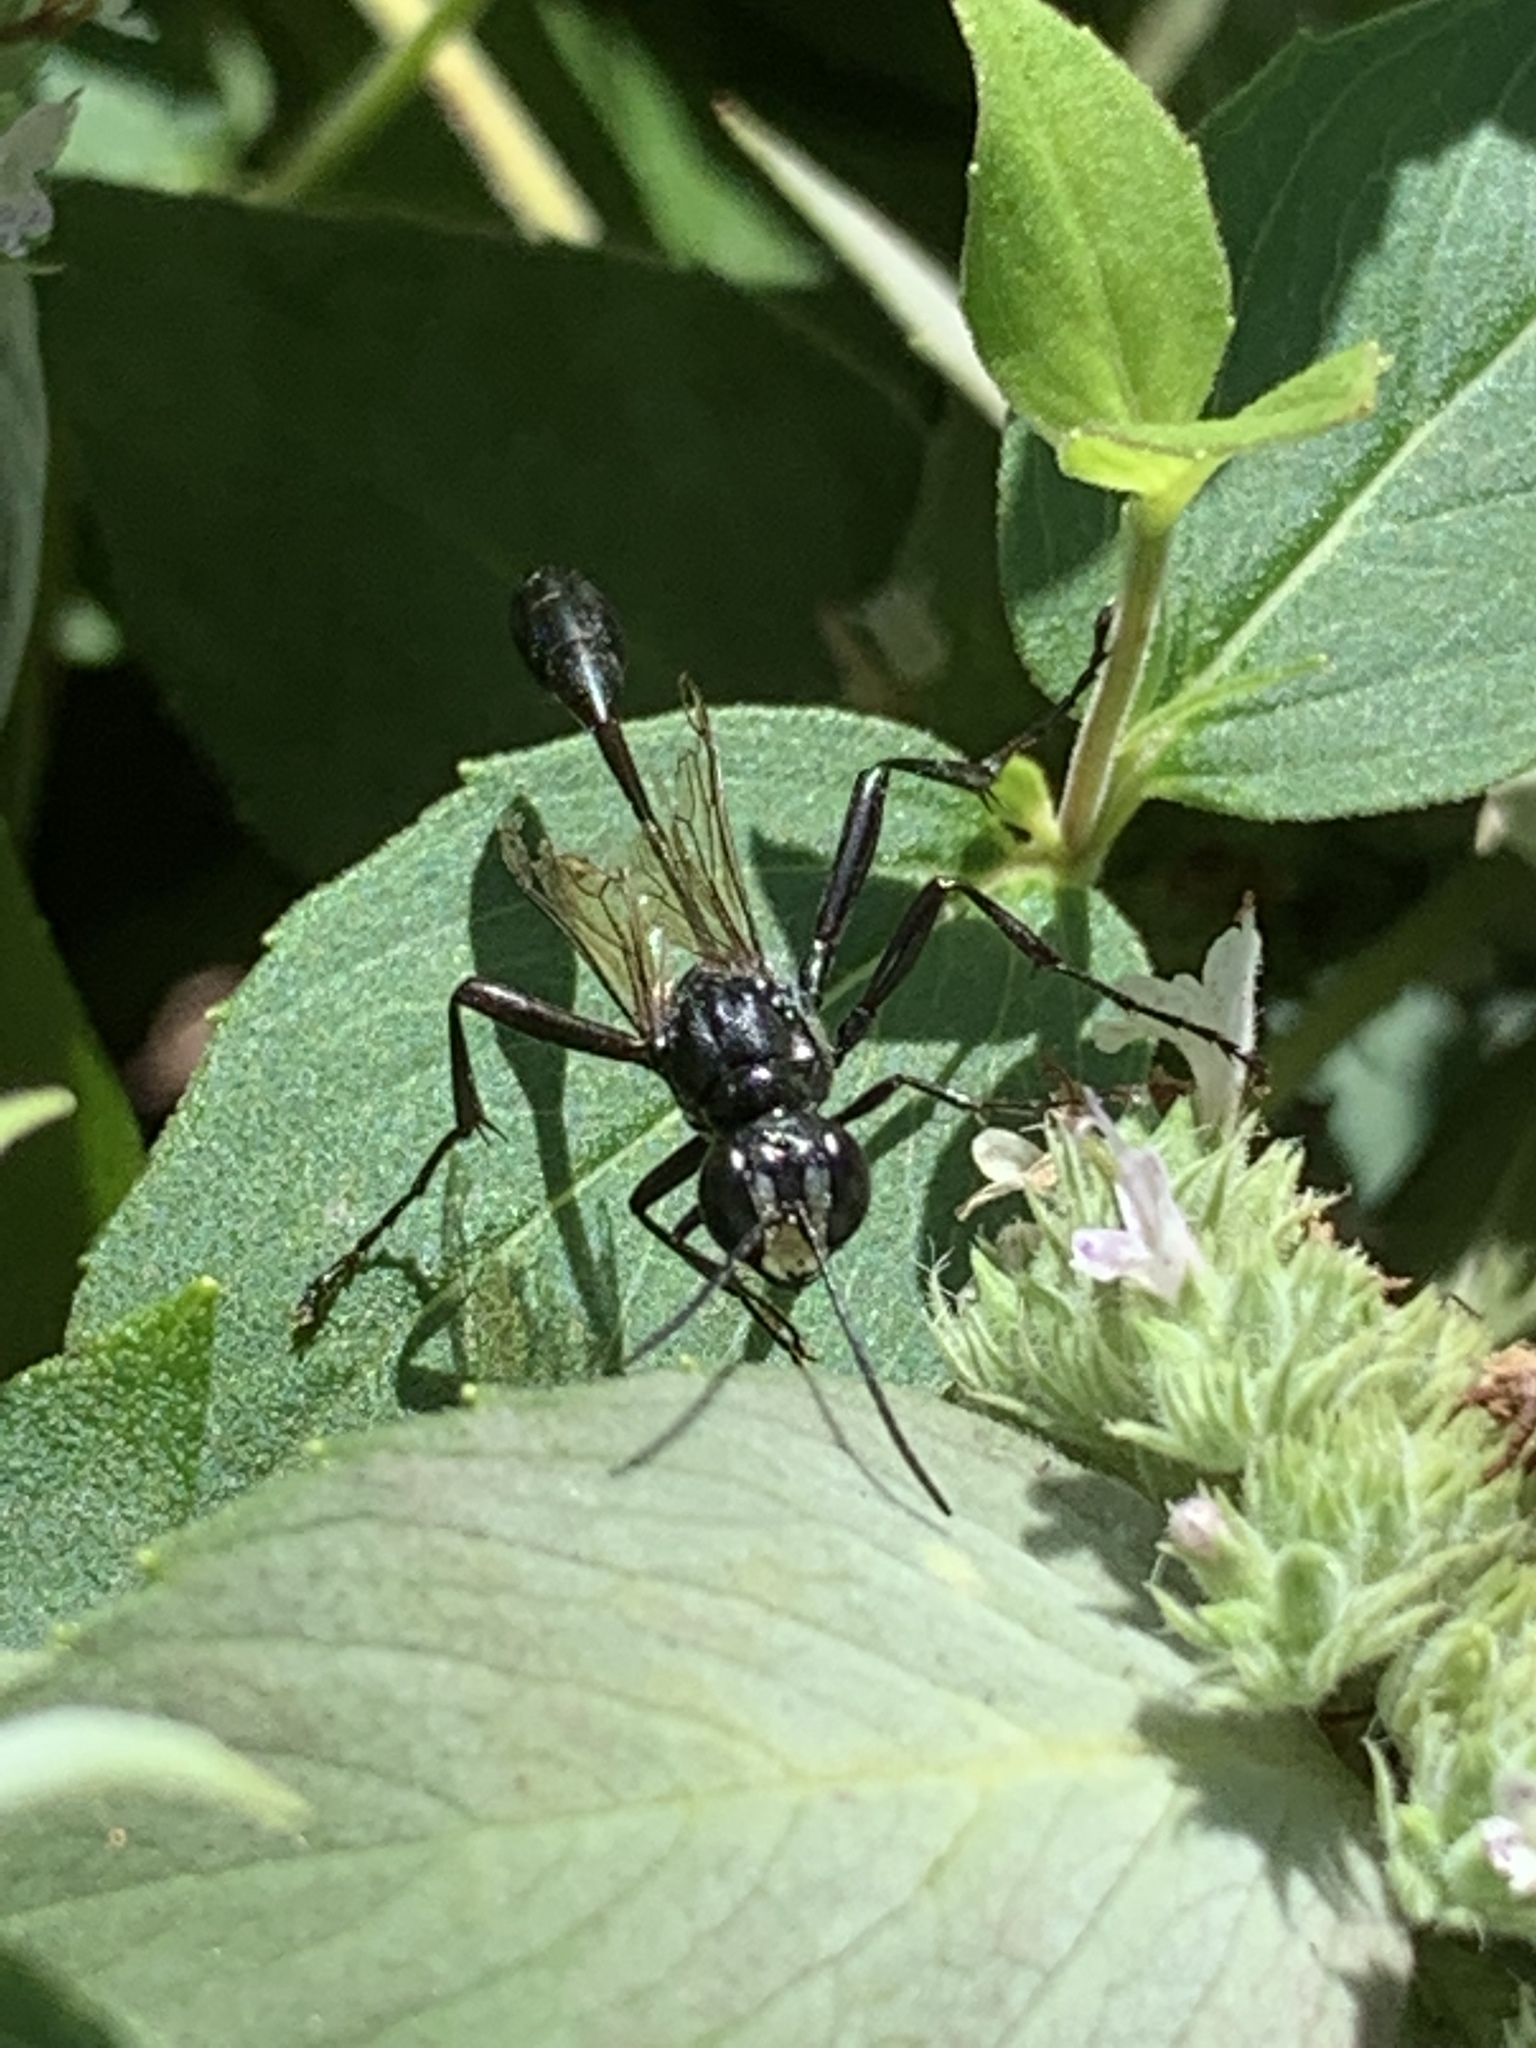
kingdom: Animalia
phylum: Arthropoda
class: Insecta
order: Hymenoptera
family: Sphecidae
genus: Eremnophila
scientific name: Eremnophila aureonotata
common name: Gold-marked thread-waisted wasp
